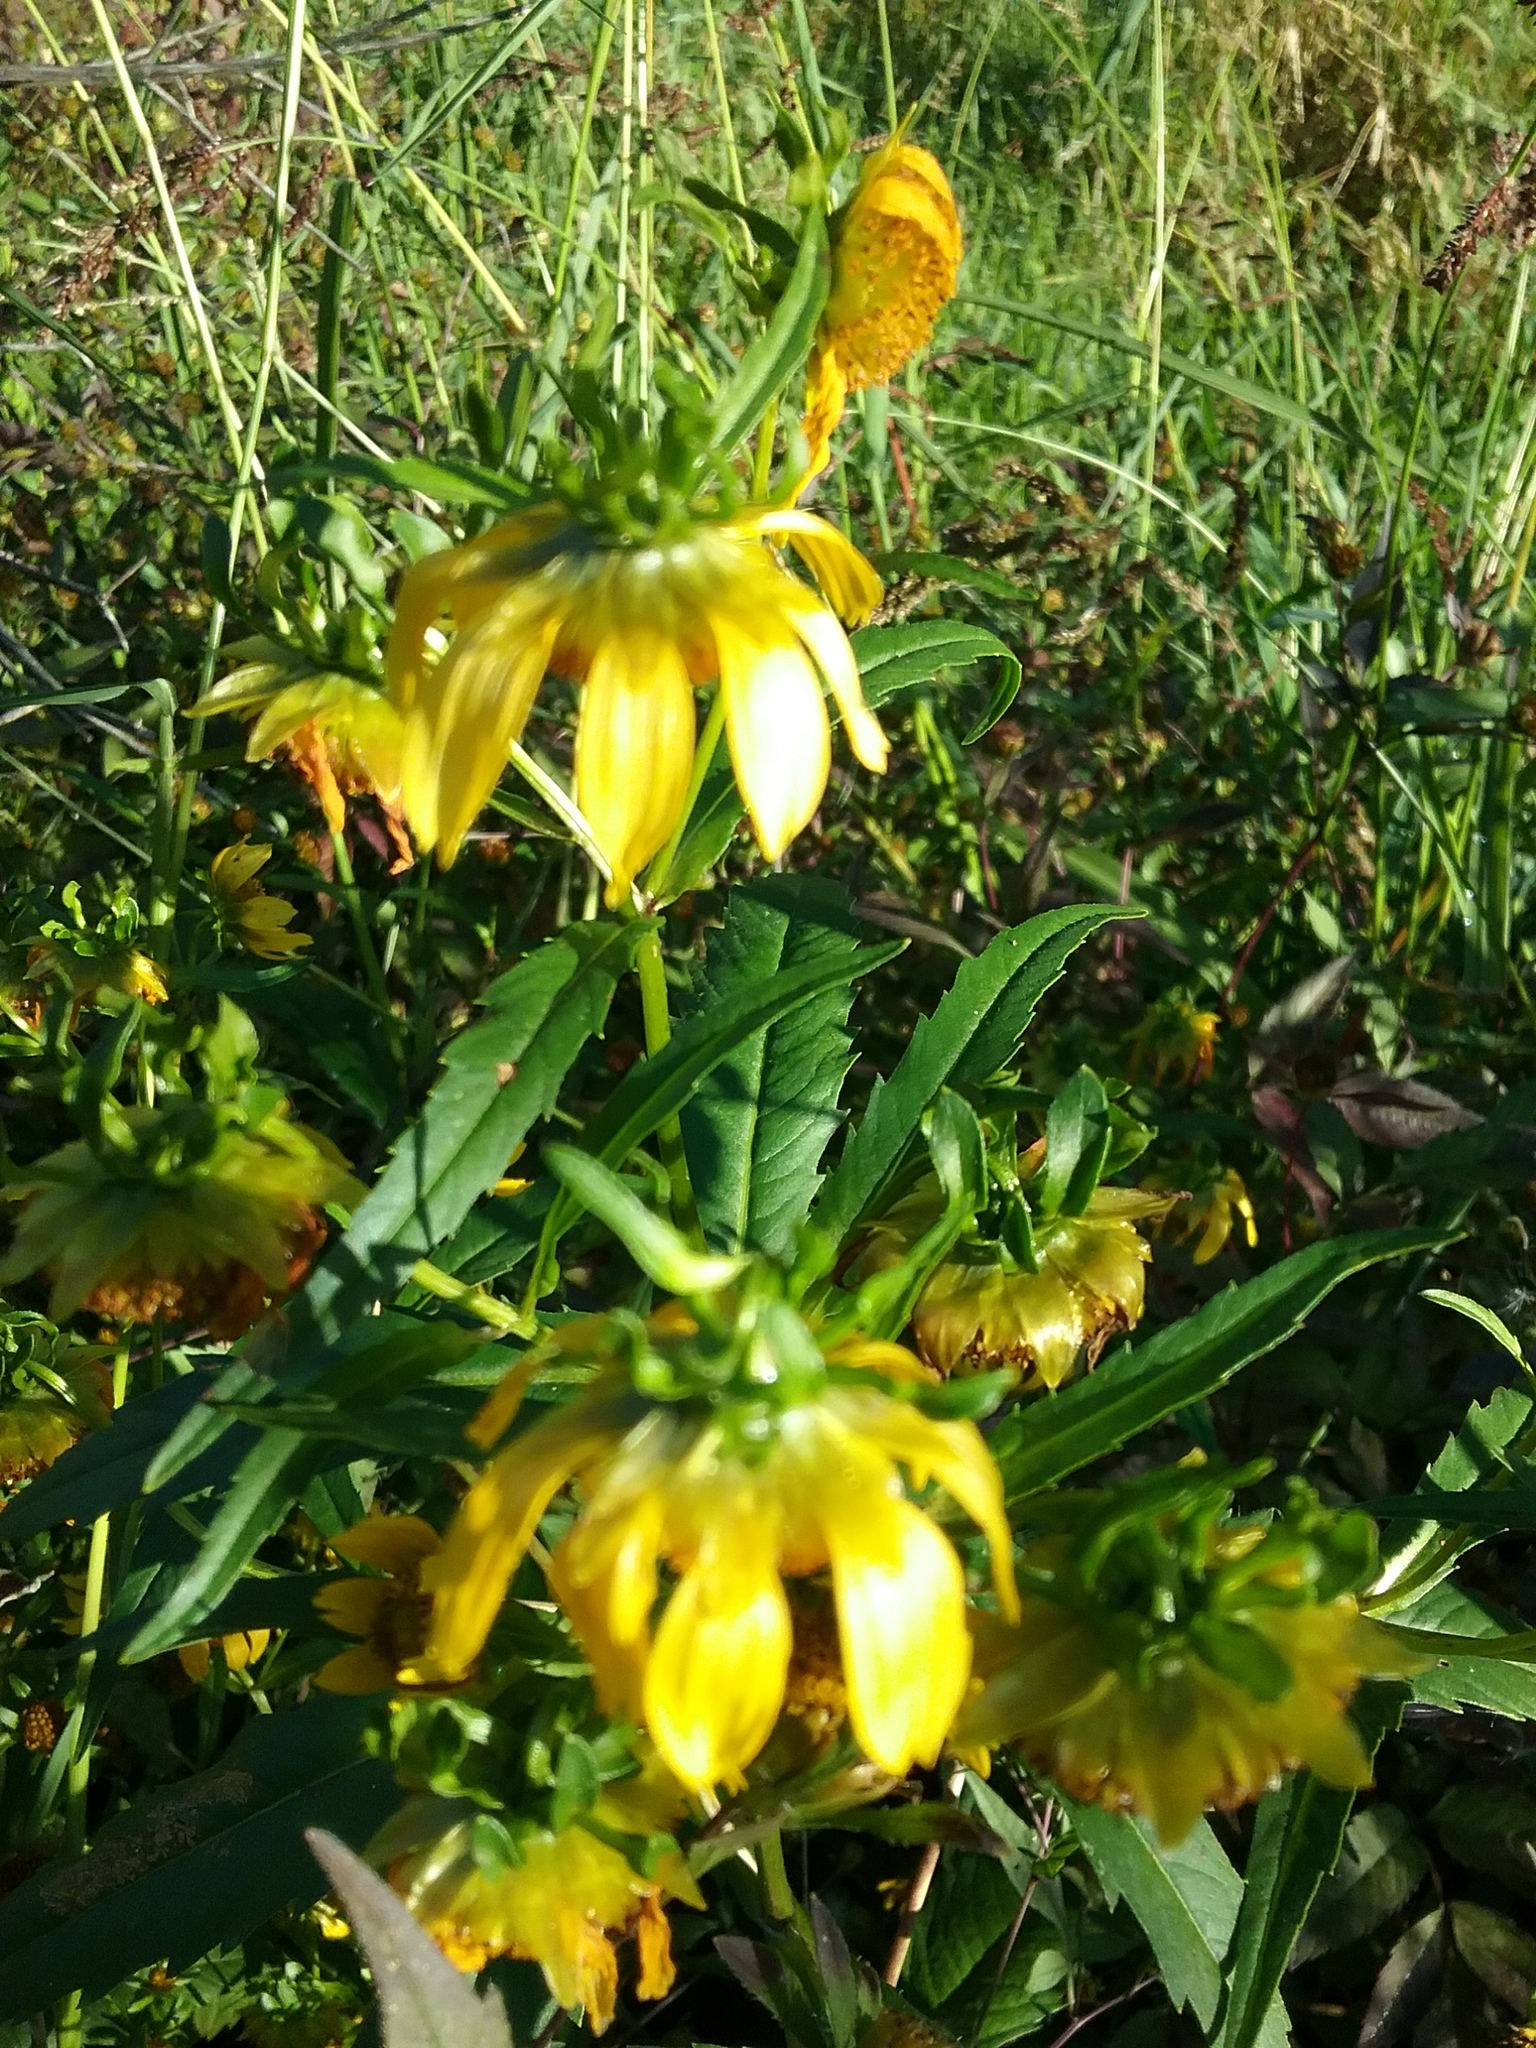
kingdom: Plantae
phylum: Tracheophyta
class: Magnoliopsida
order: Asterales
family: Asteraceae
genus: Bidens
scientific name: Bidens cernua
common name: Nodding bur-marigold
